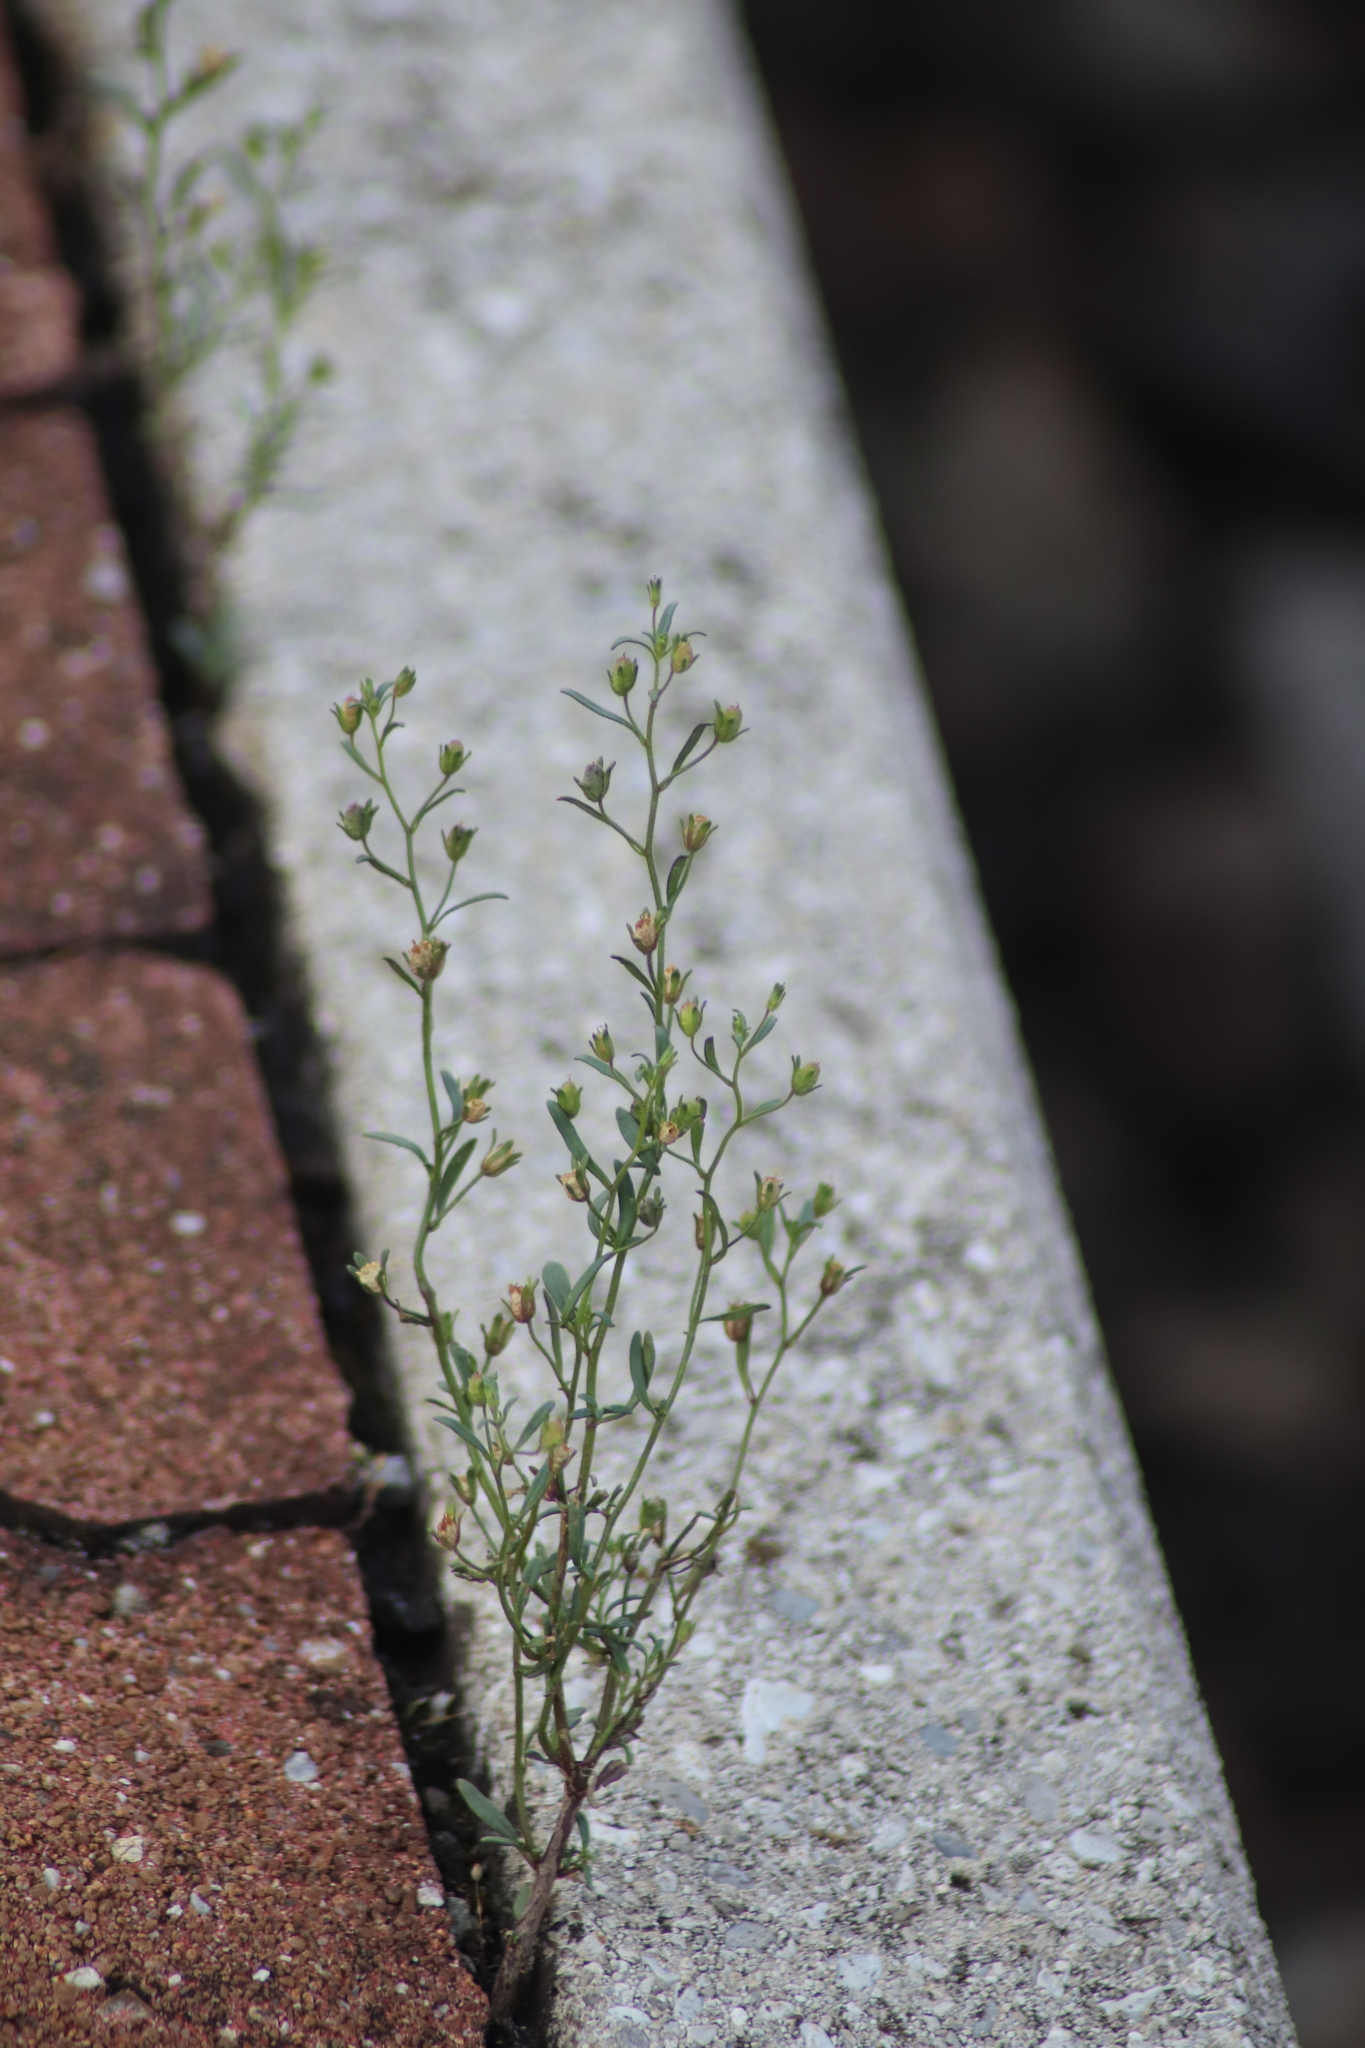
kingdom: Plantae
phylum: Tracheophyta
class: Magnoliopsida
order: Lamiales
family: Plantaginaceae
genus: Chaenorhinum
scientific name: Chaenorhinum minus
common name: Dwarf snapdragon
